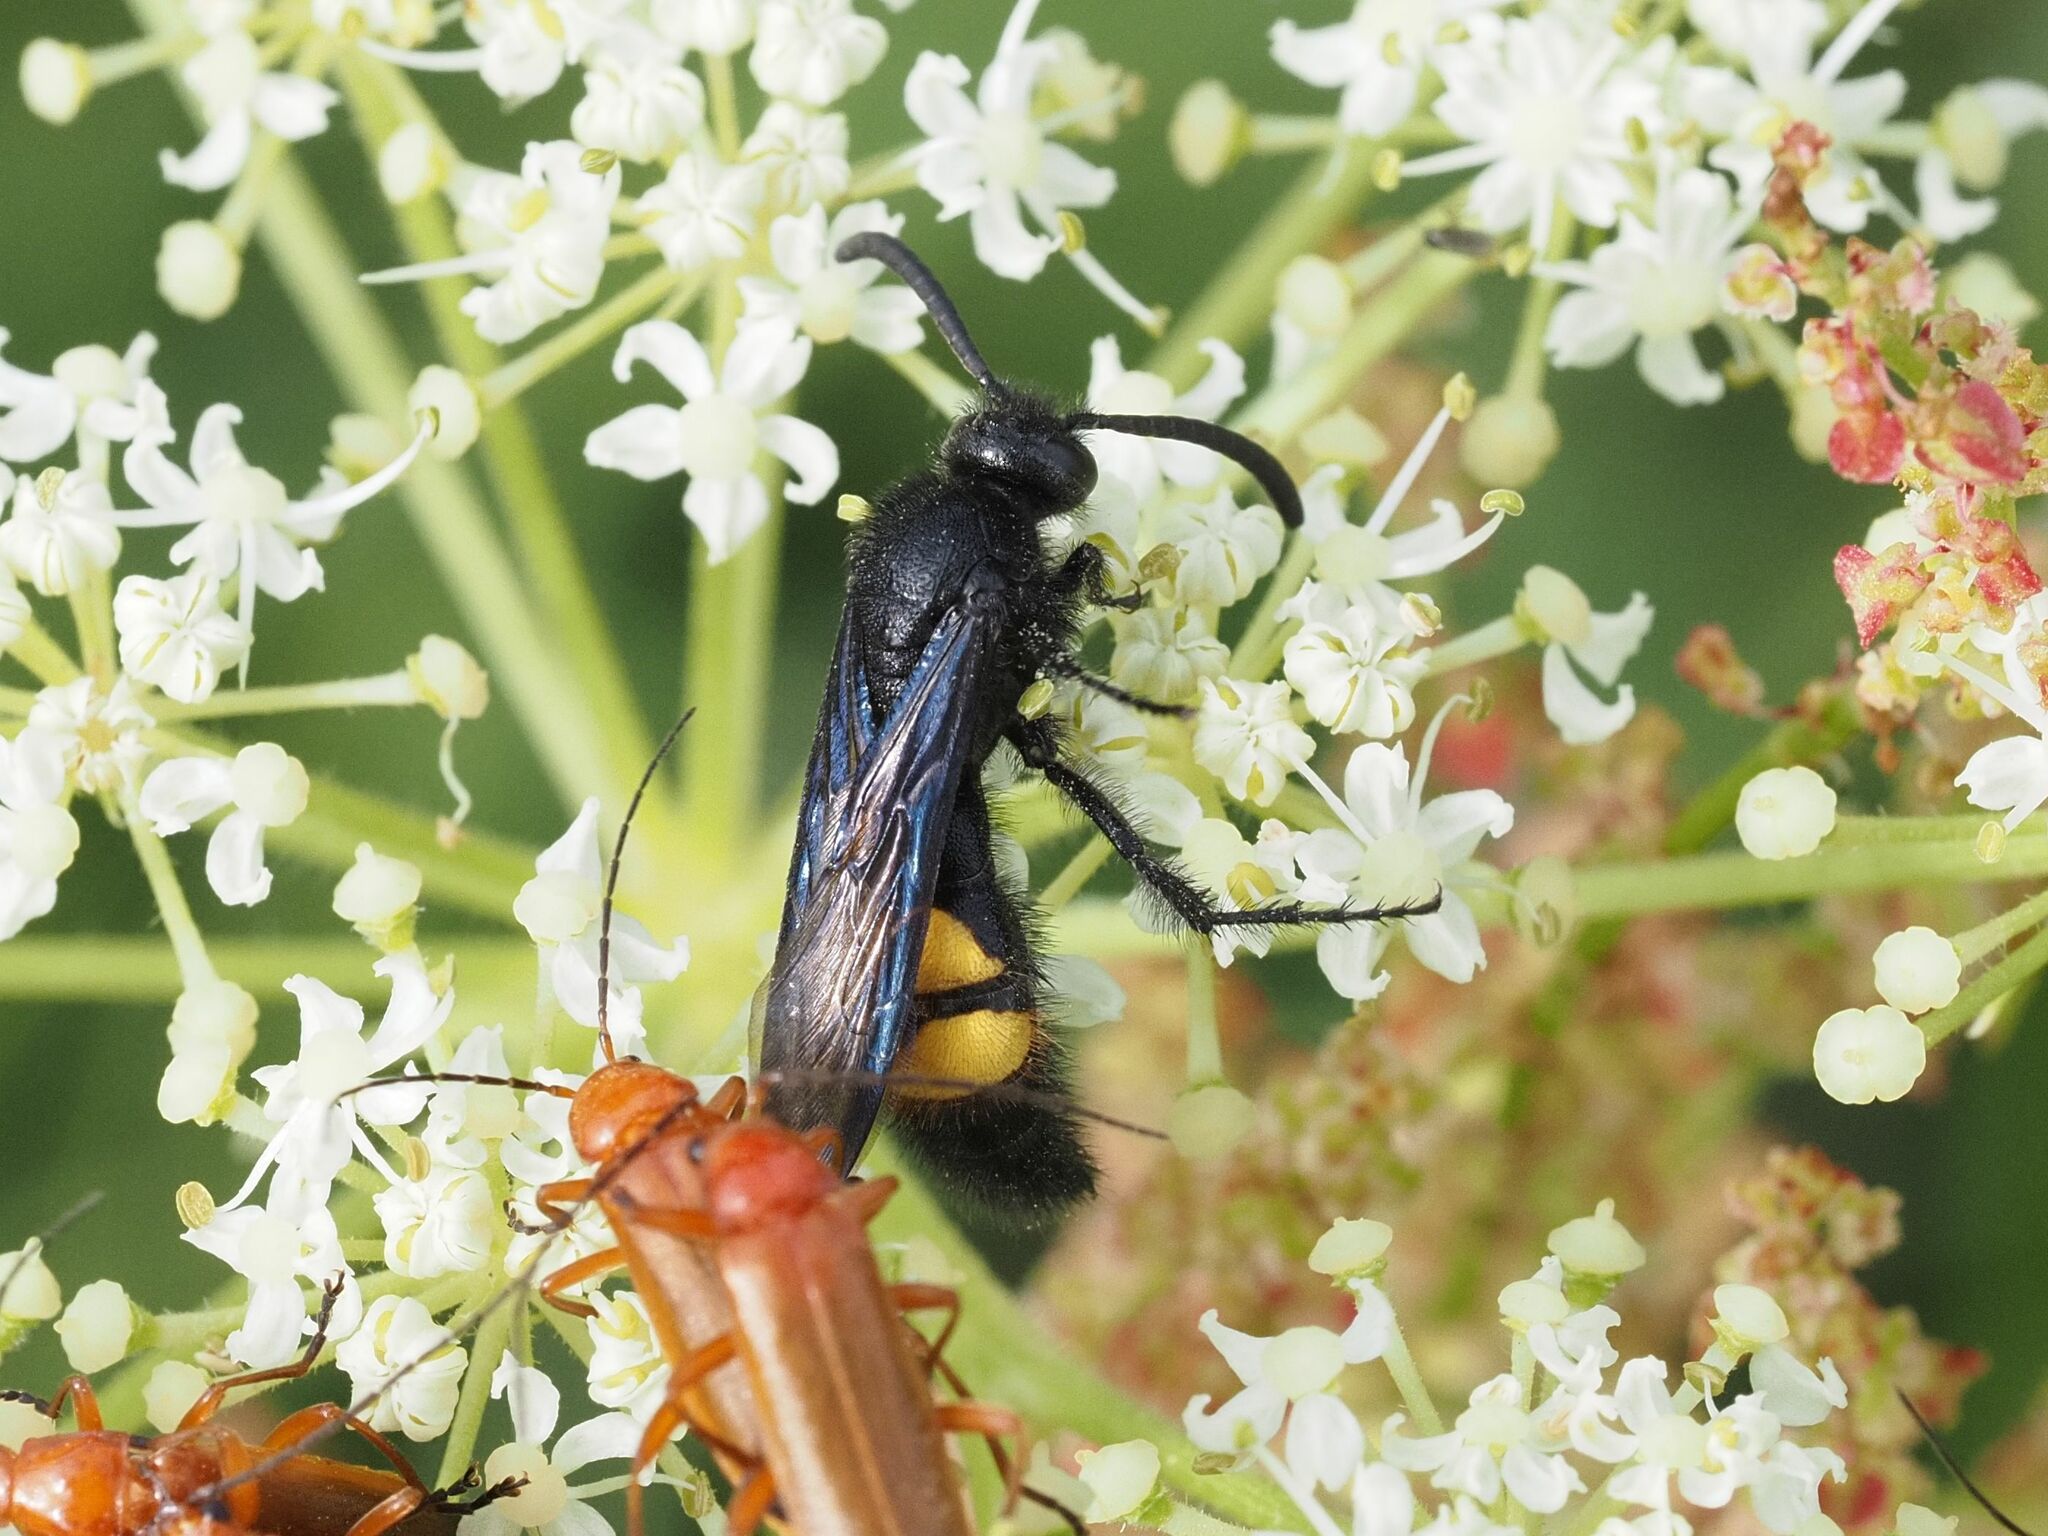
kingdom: Animalia
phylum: Arthropoda
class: Insecta
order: Hymenoptera
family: Scoliidae
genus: Scolia
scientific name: Scolia hirta
